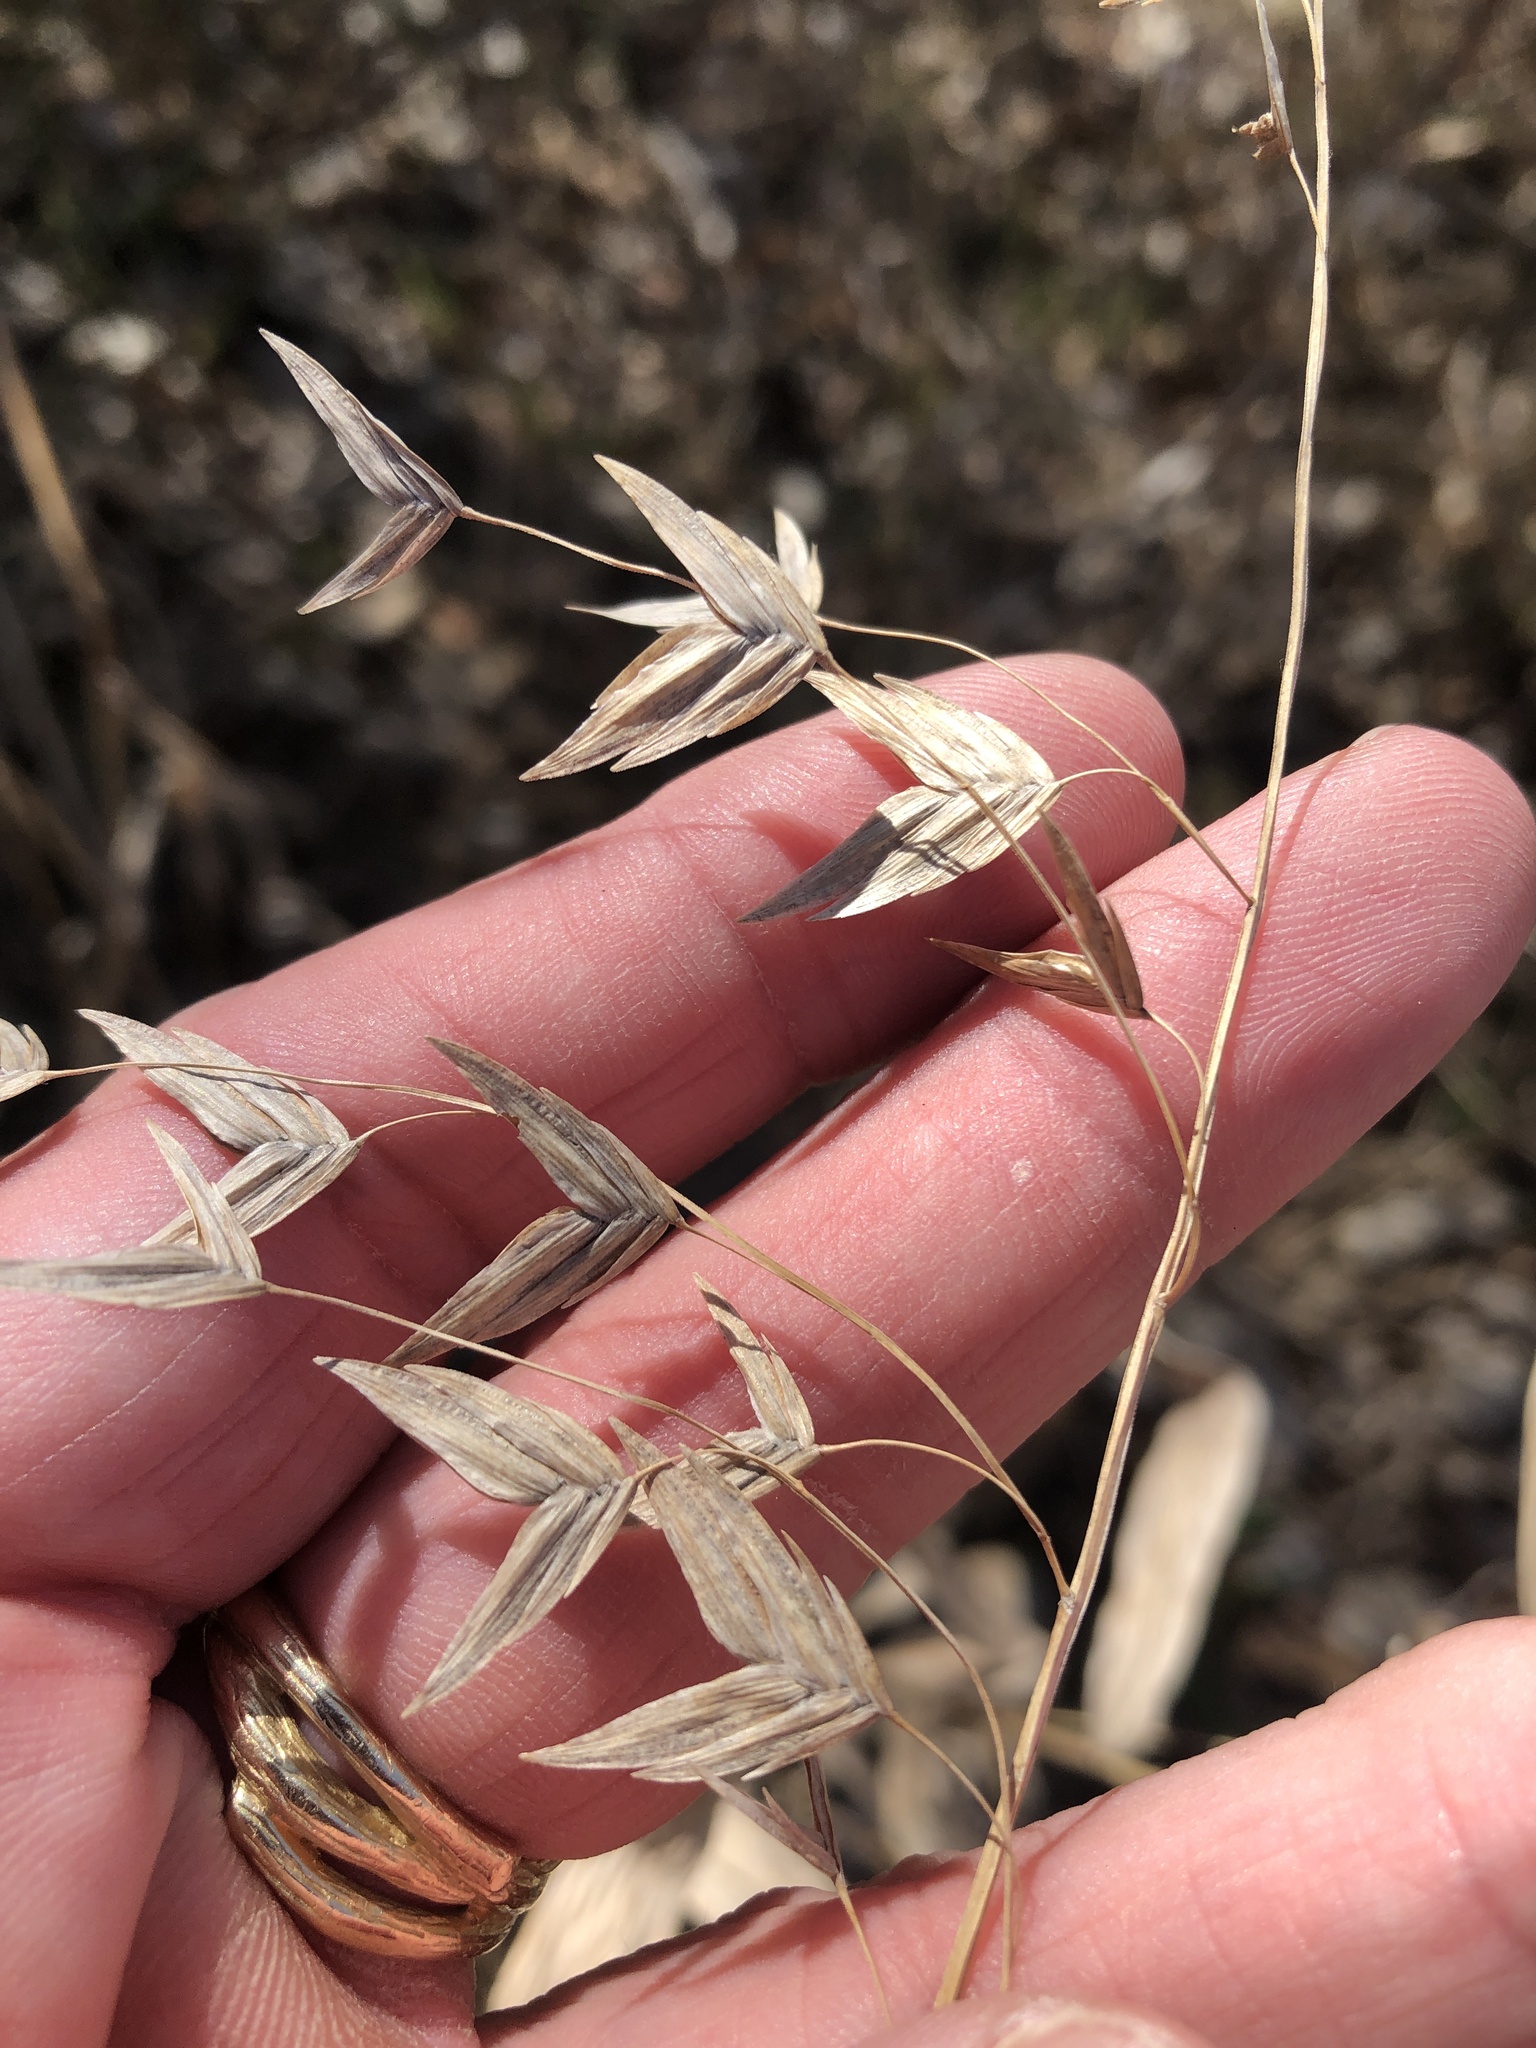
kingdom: Plantae
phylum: Tracheophyta
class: Liliopsida
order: Poales
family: Poaceae
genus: Chasmanthium
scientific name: Chasmanthium latifolium
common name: Broad-leaved chasmanthium
